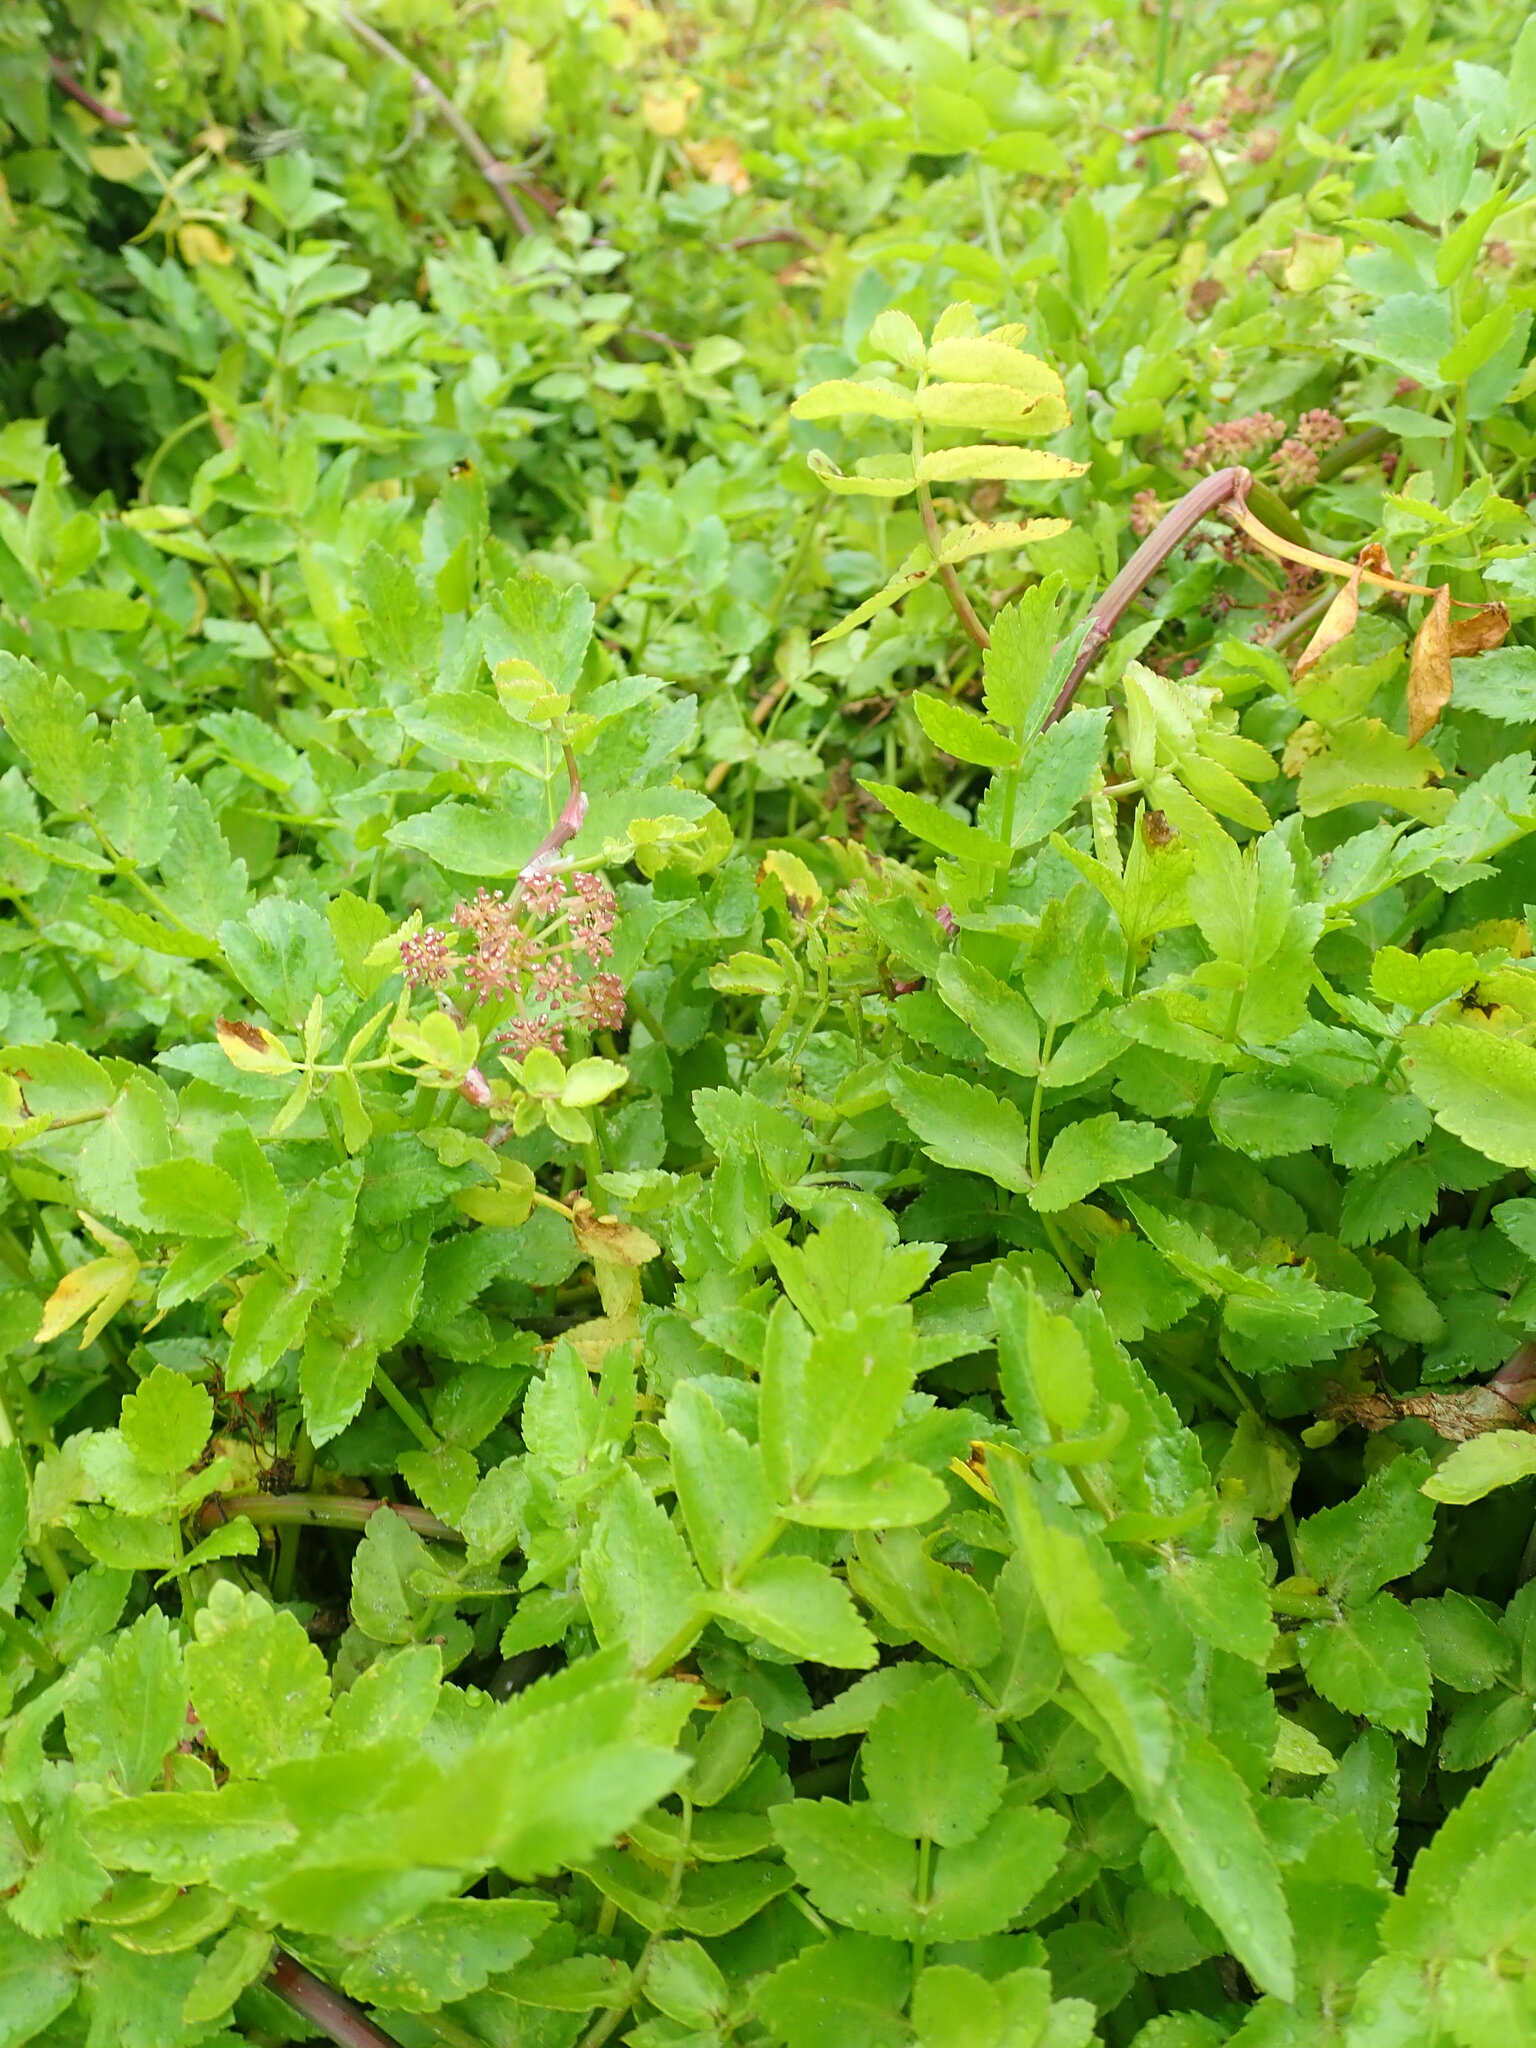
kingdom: Plantae
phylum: Tracheophyta
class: Magnoliopsida
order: Apiales
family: Apiaceae
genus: Helosciadium
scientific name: Helosciadium nodiflorum
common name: Fool's-watercress
